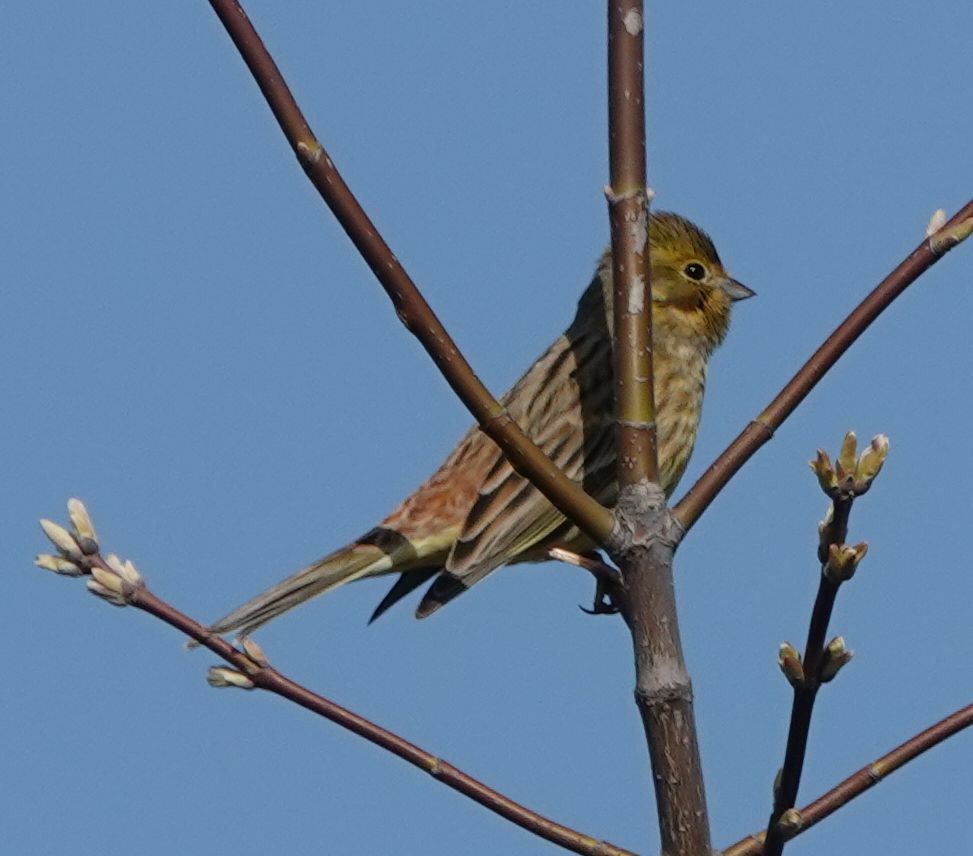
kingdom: Animalia
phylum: Chordata
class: Aves
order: Passeriformes
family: Emberizidae
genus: Emberiza
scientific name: Emberiza citrinella
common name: Yellowhammer
